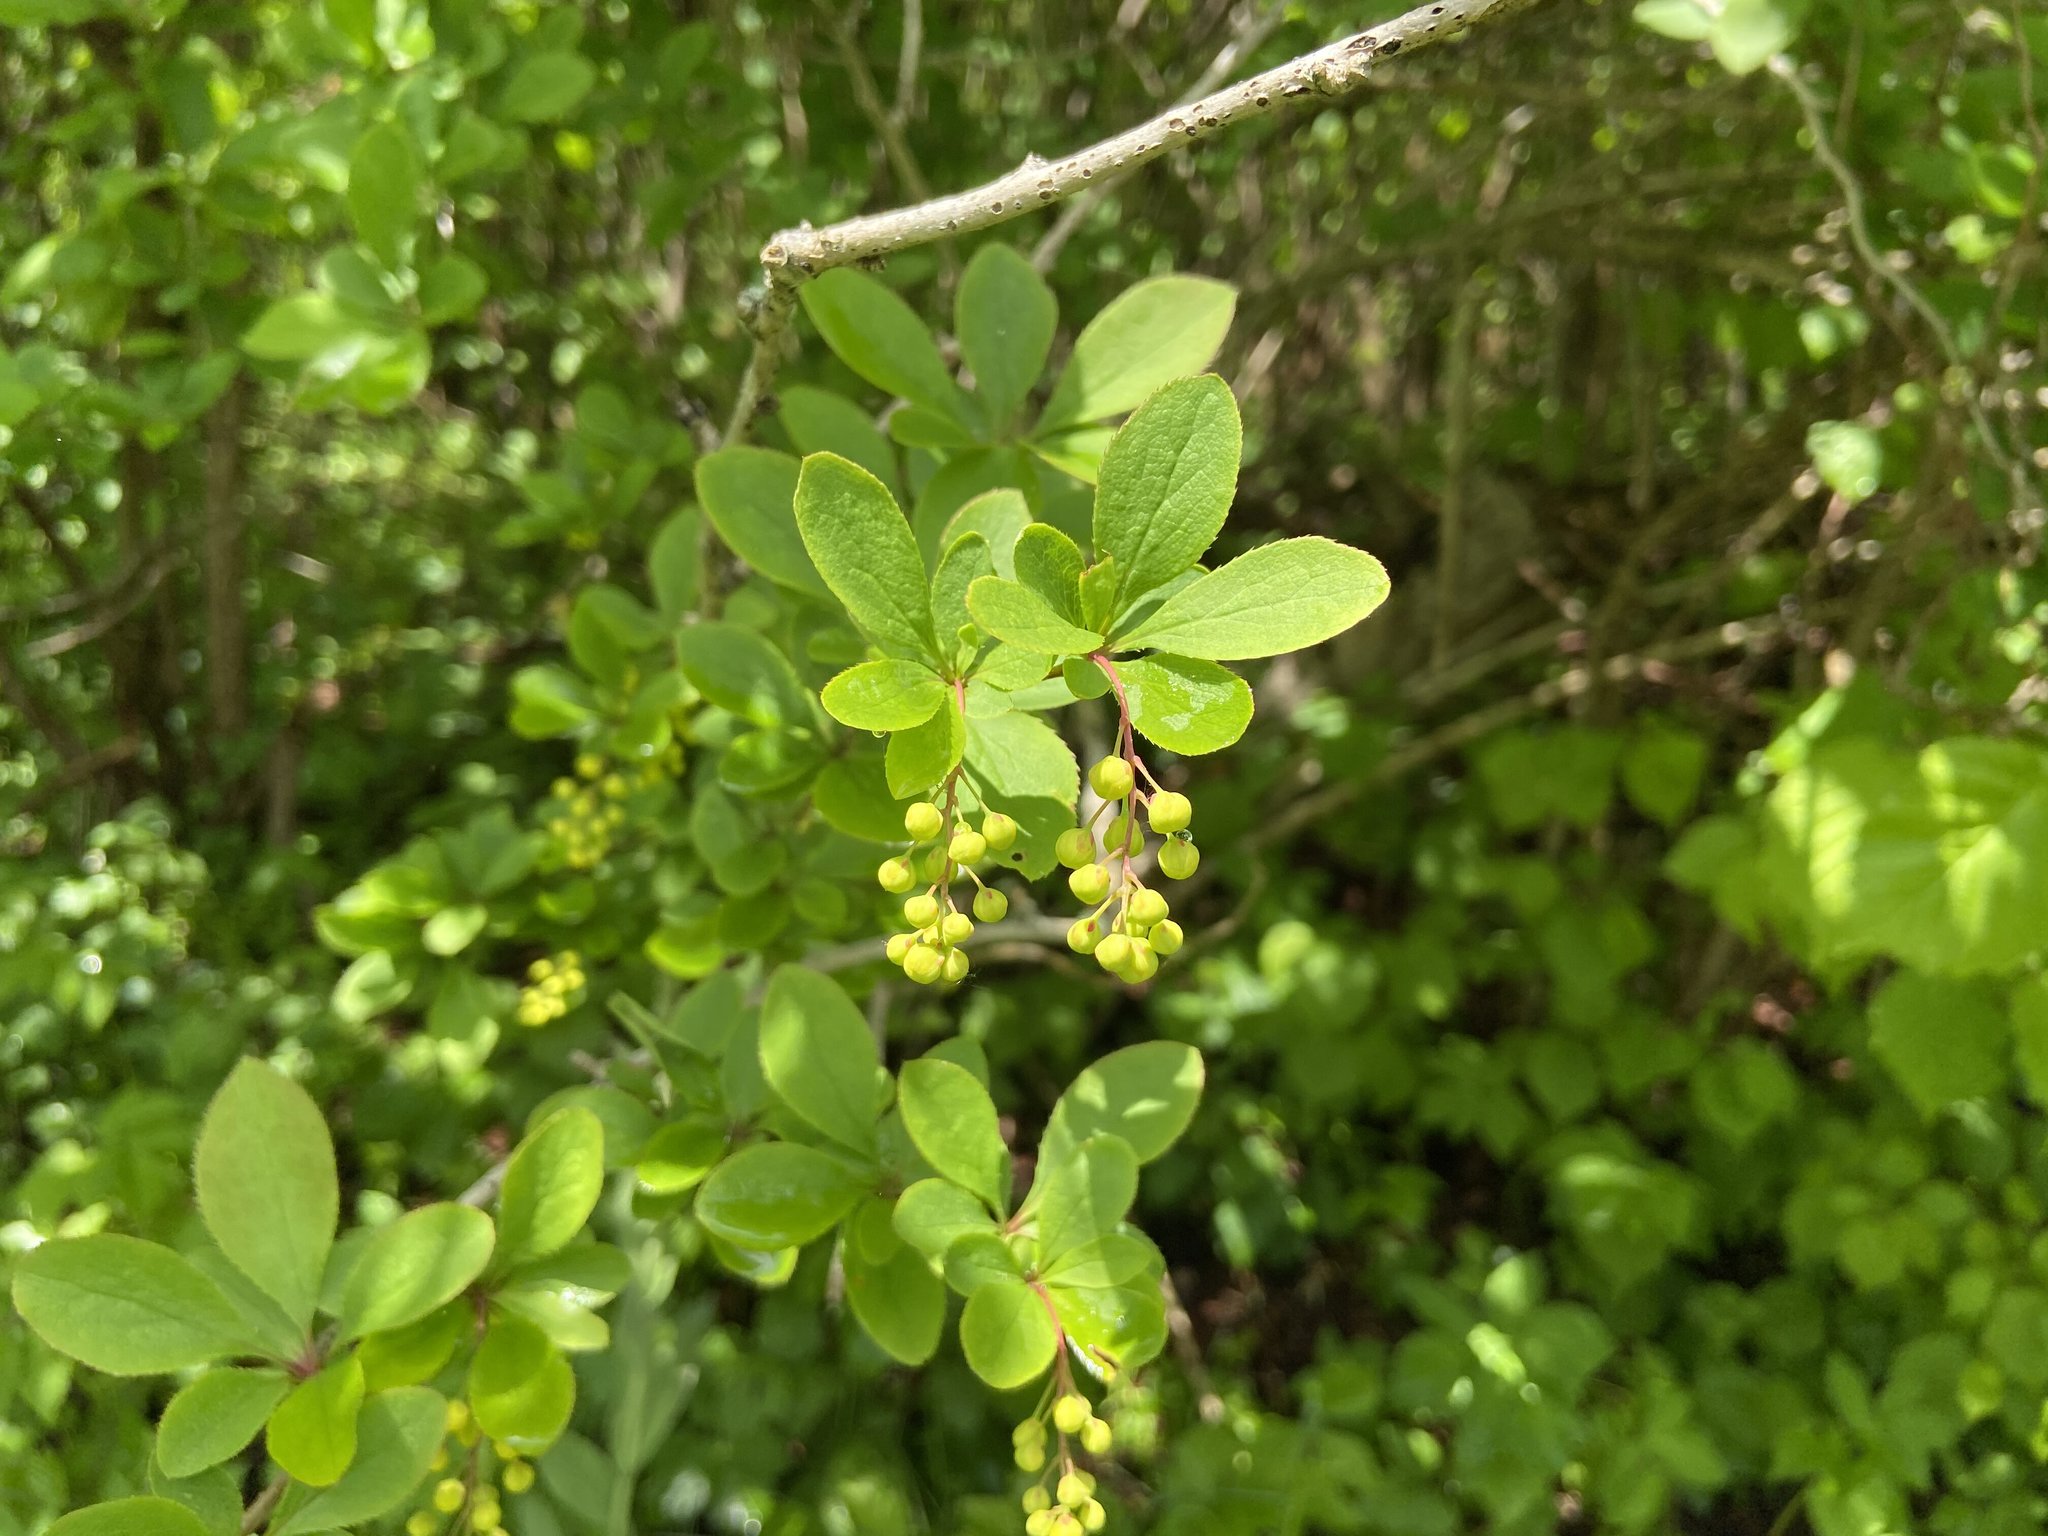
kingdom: Plantae
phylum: Tracheophyta
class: Magnoliopsida
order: Ranunculales
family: Berberidaceae
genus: Berberis
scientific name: Berberis vulgaris
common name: Barberry
